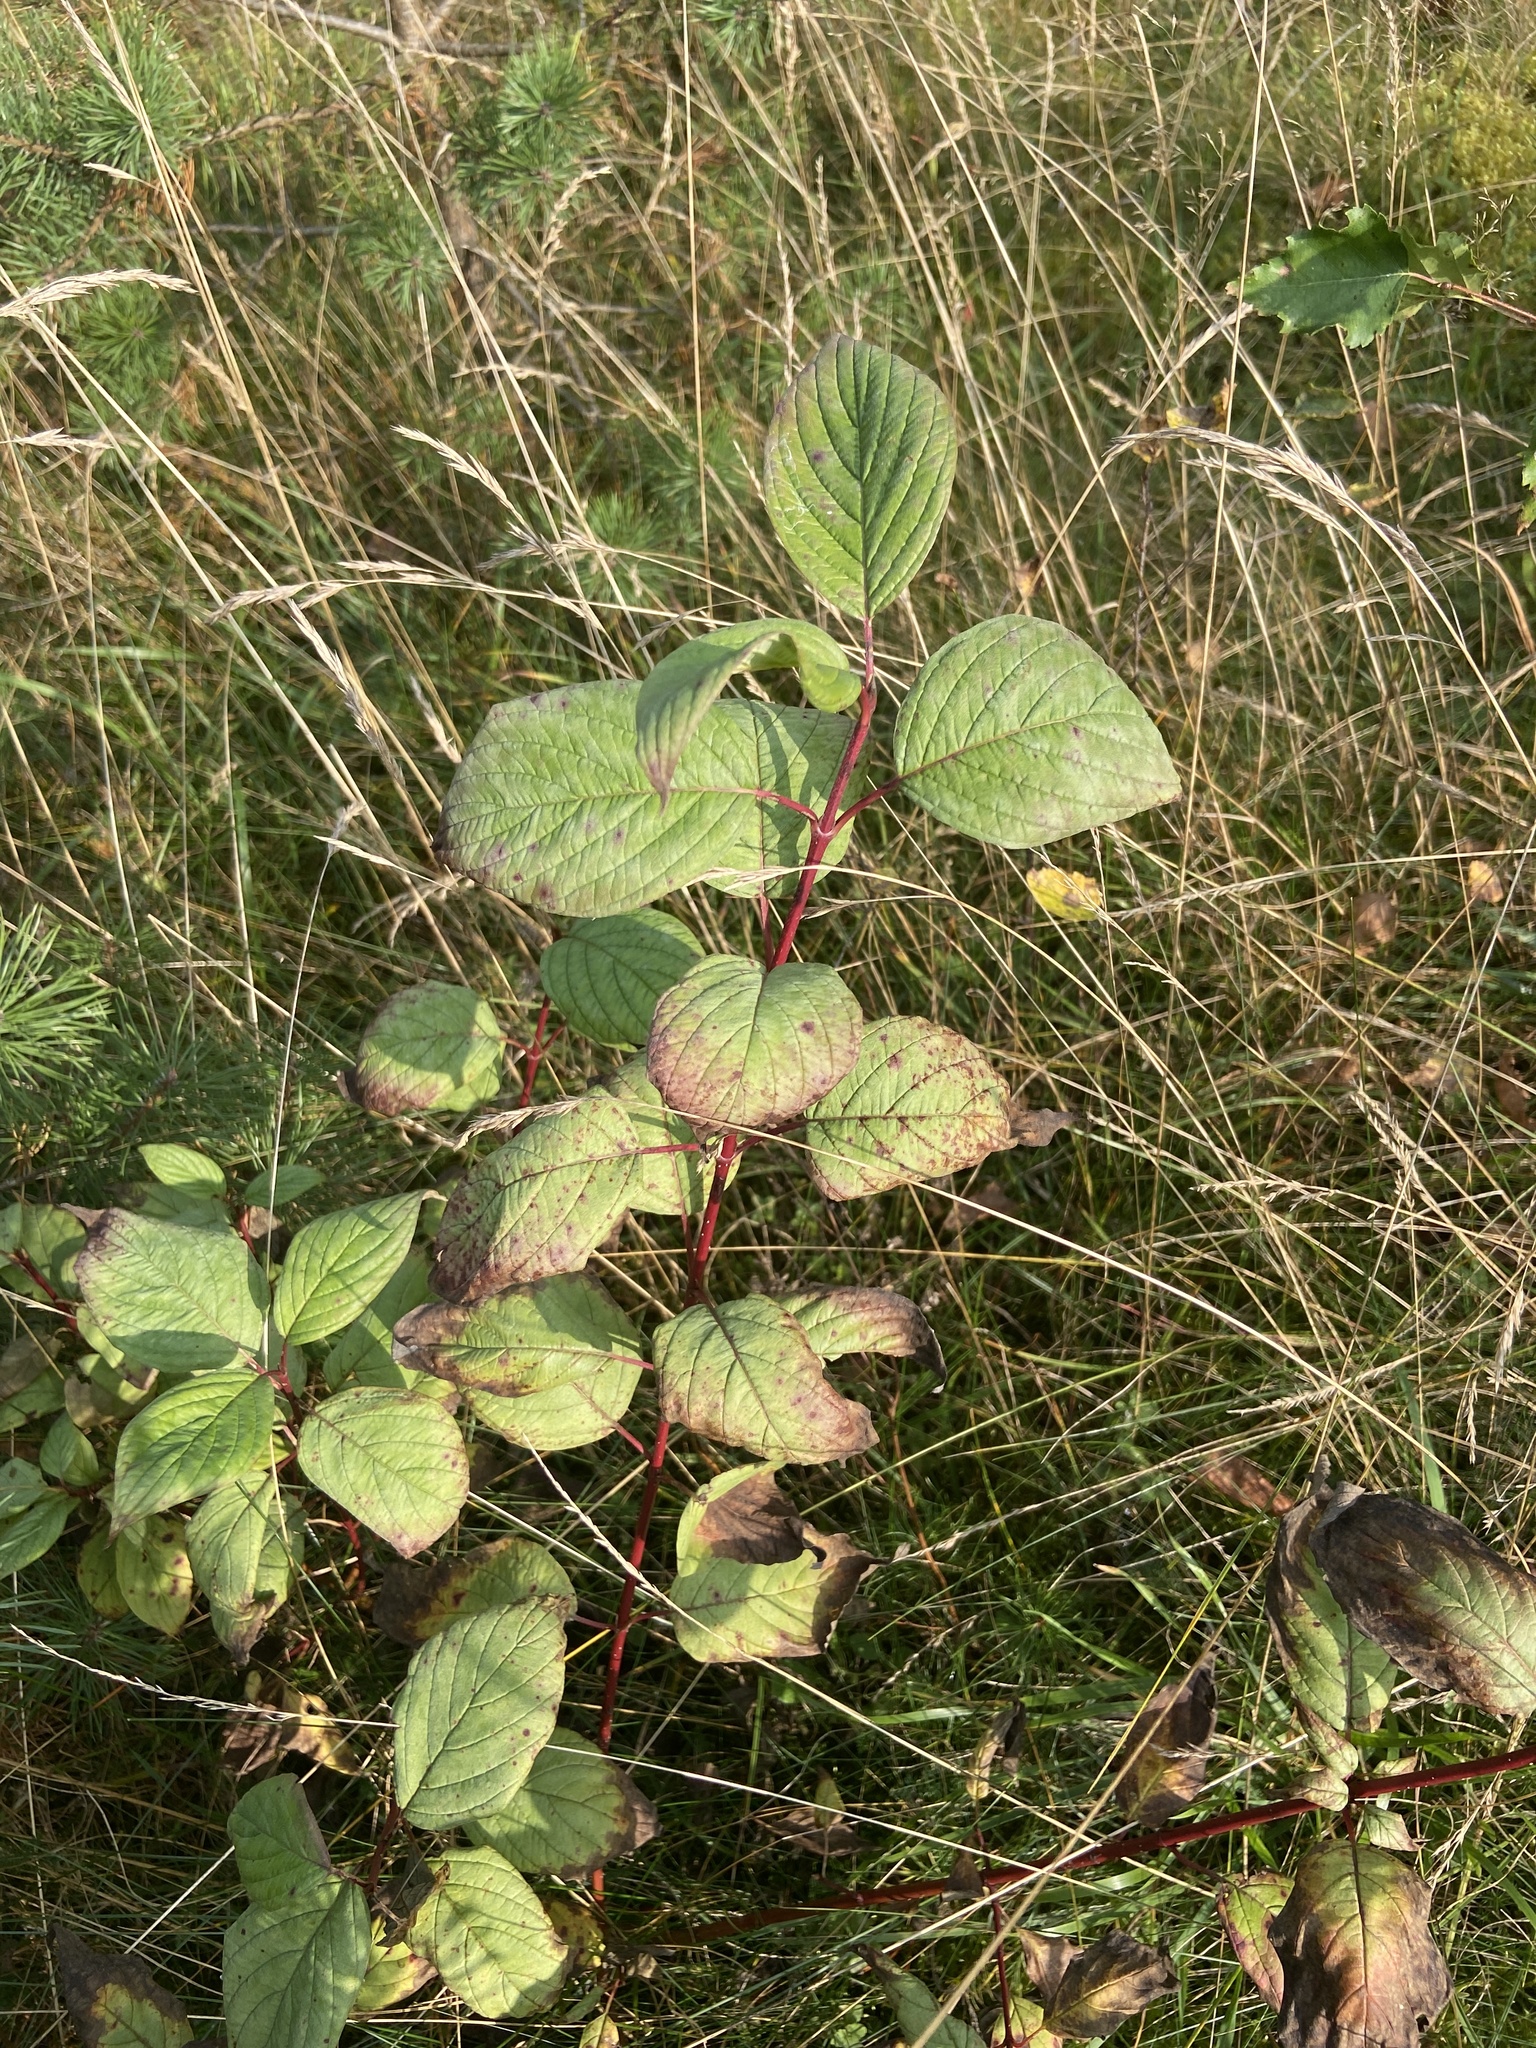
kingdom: Plantae
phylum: Tracheophyta
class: Magnoliopsida
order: Cornales
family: Cornaceae
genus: Cornus
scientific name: Cornus alba
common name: White dogwood
